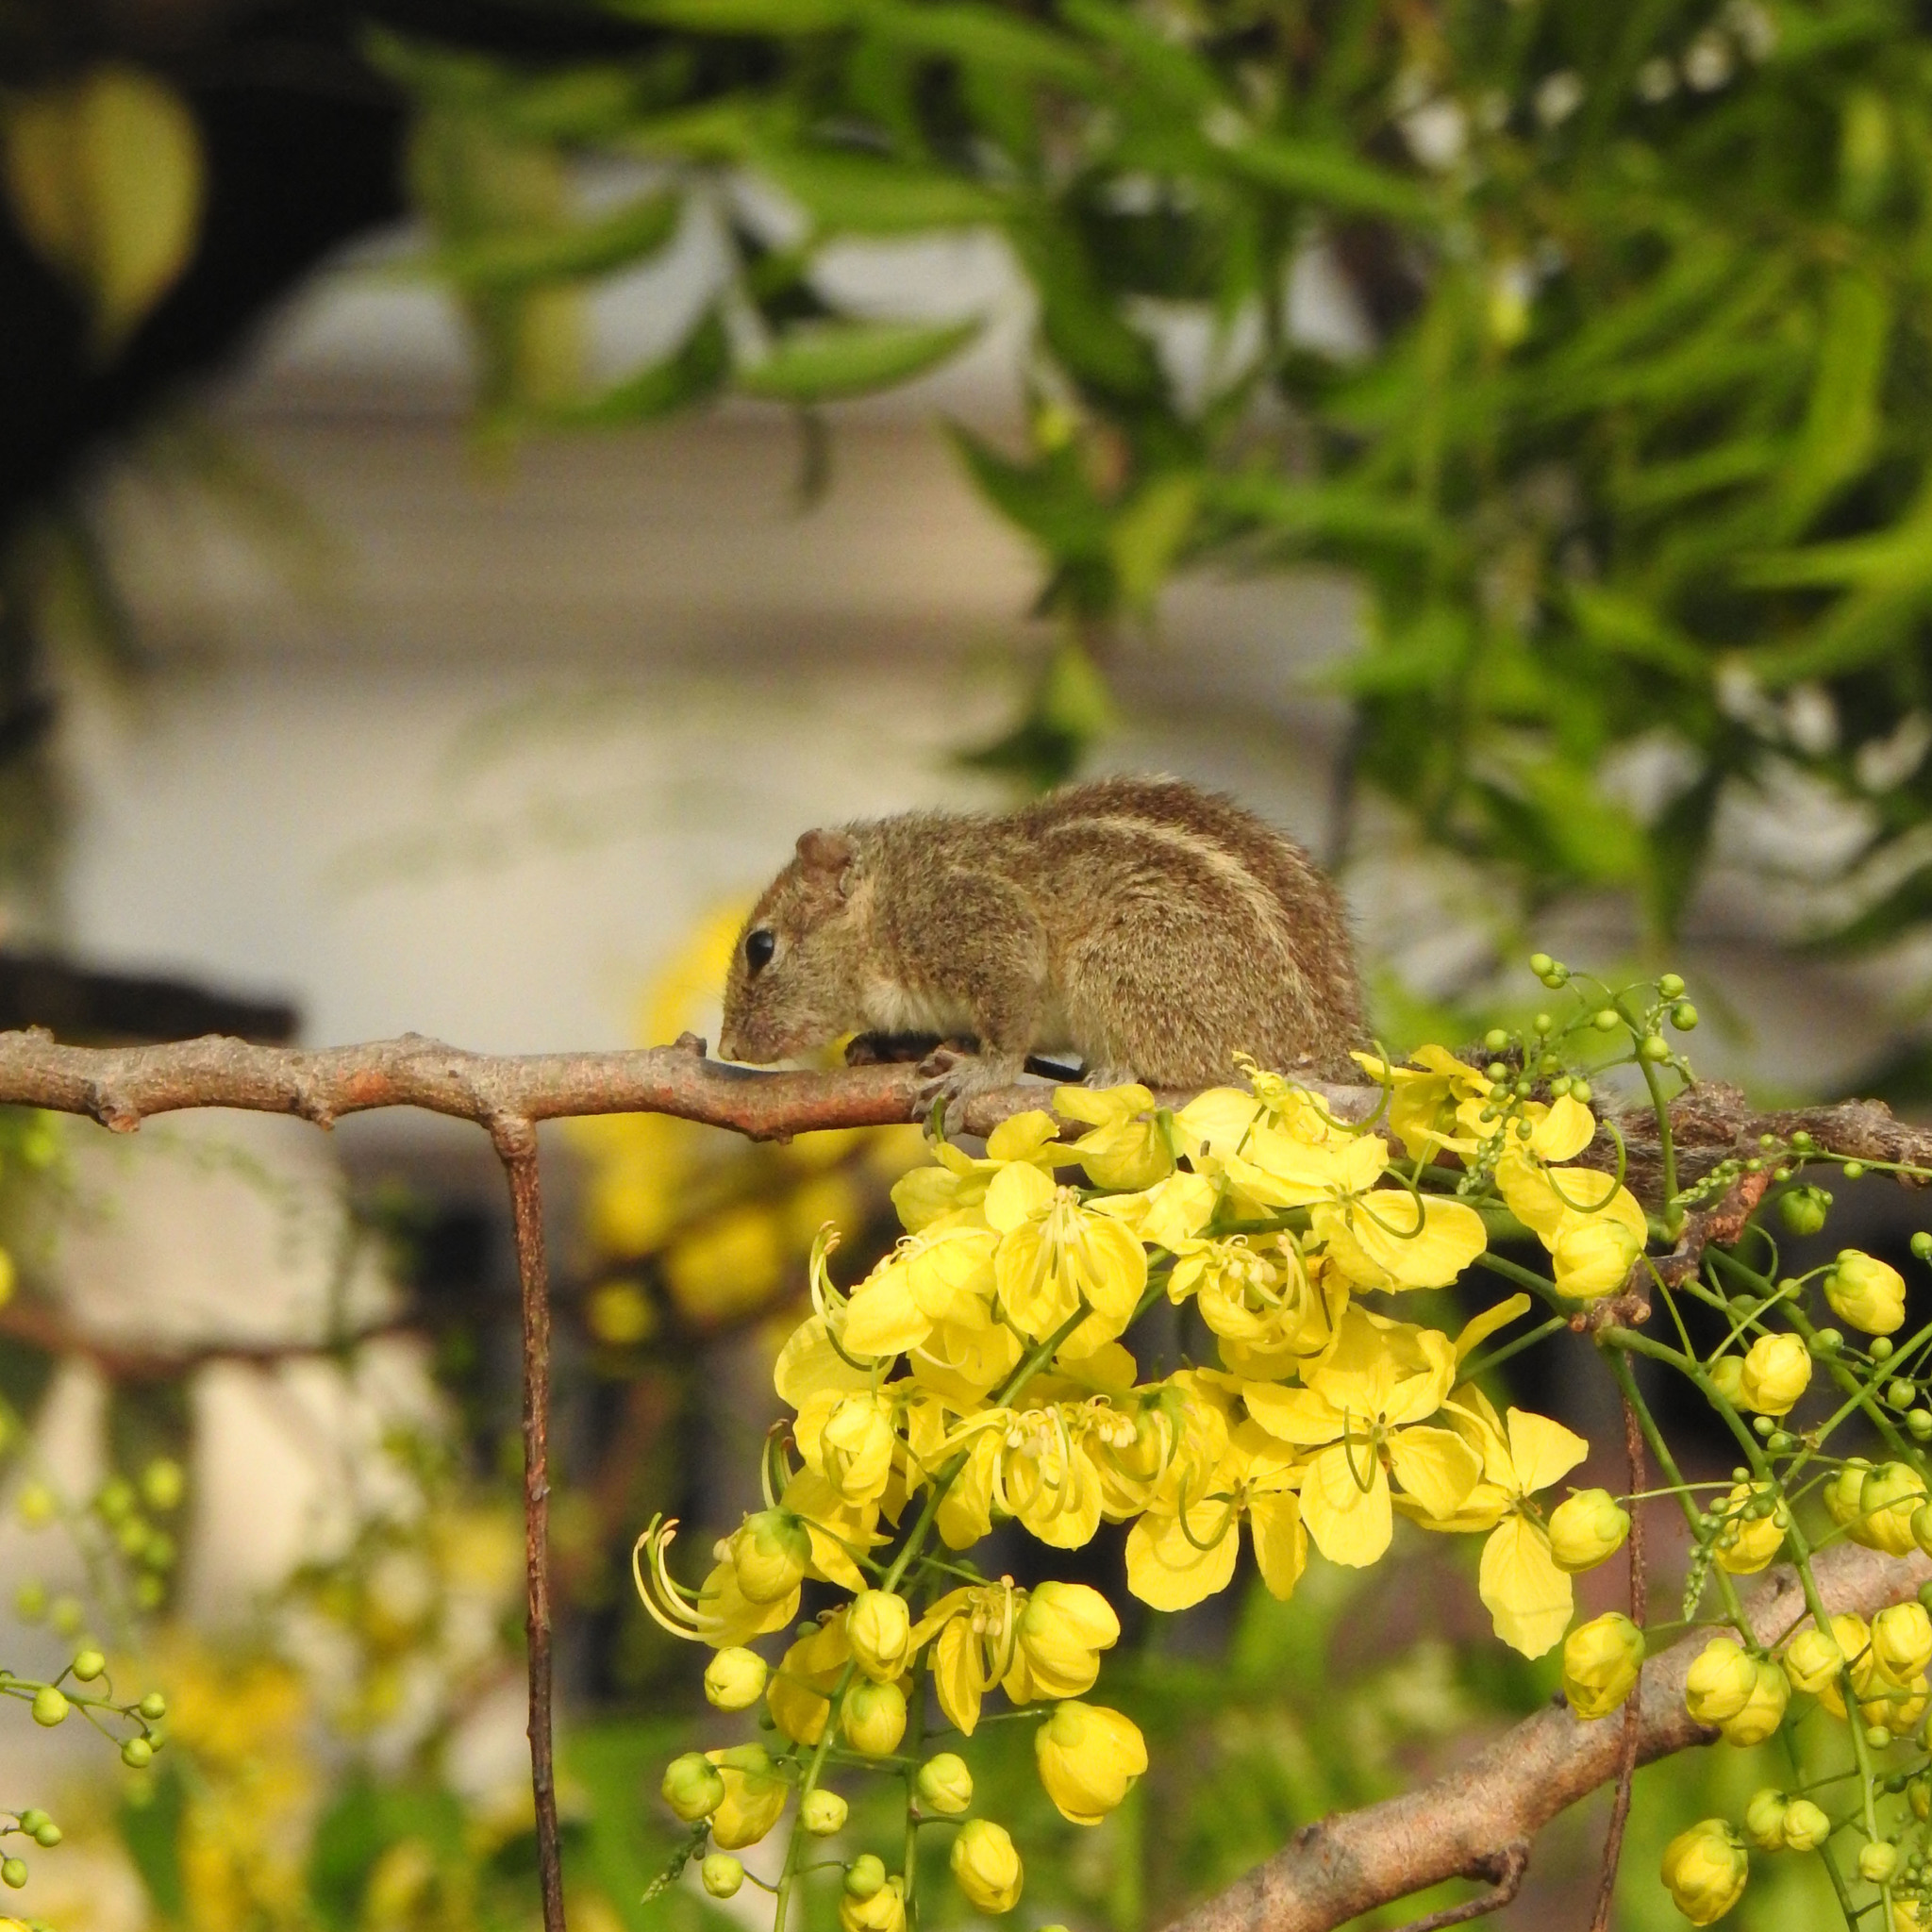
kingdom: Animalia
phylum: Chordata
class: Mammalia
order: Rodentia
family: Sciuridae
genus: Funambulus
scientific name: Funambulus palmarum
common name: Indian palm squirrel
